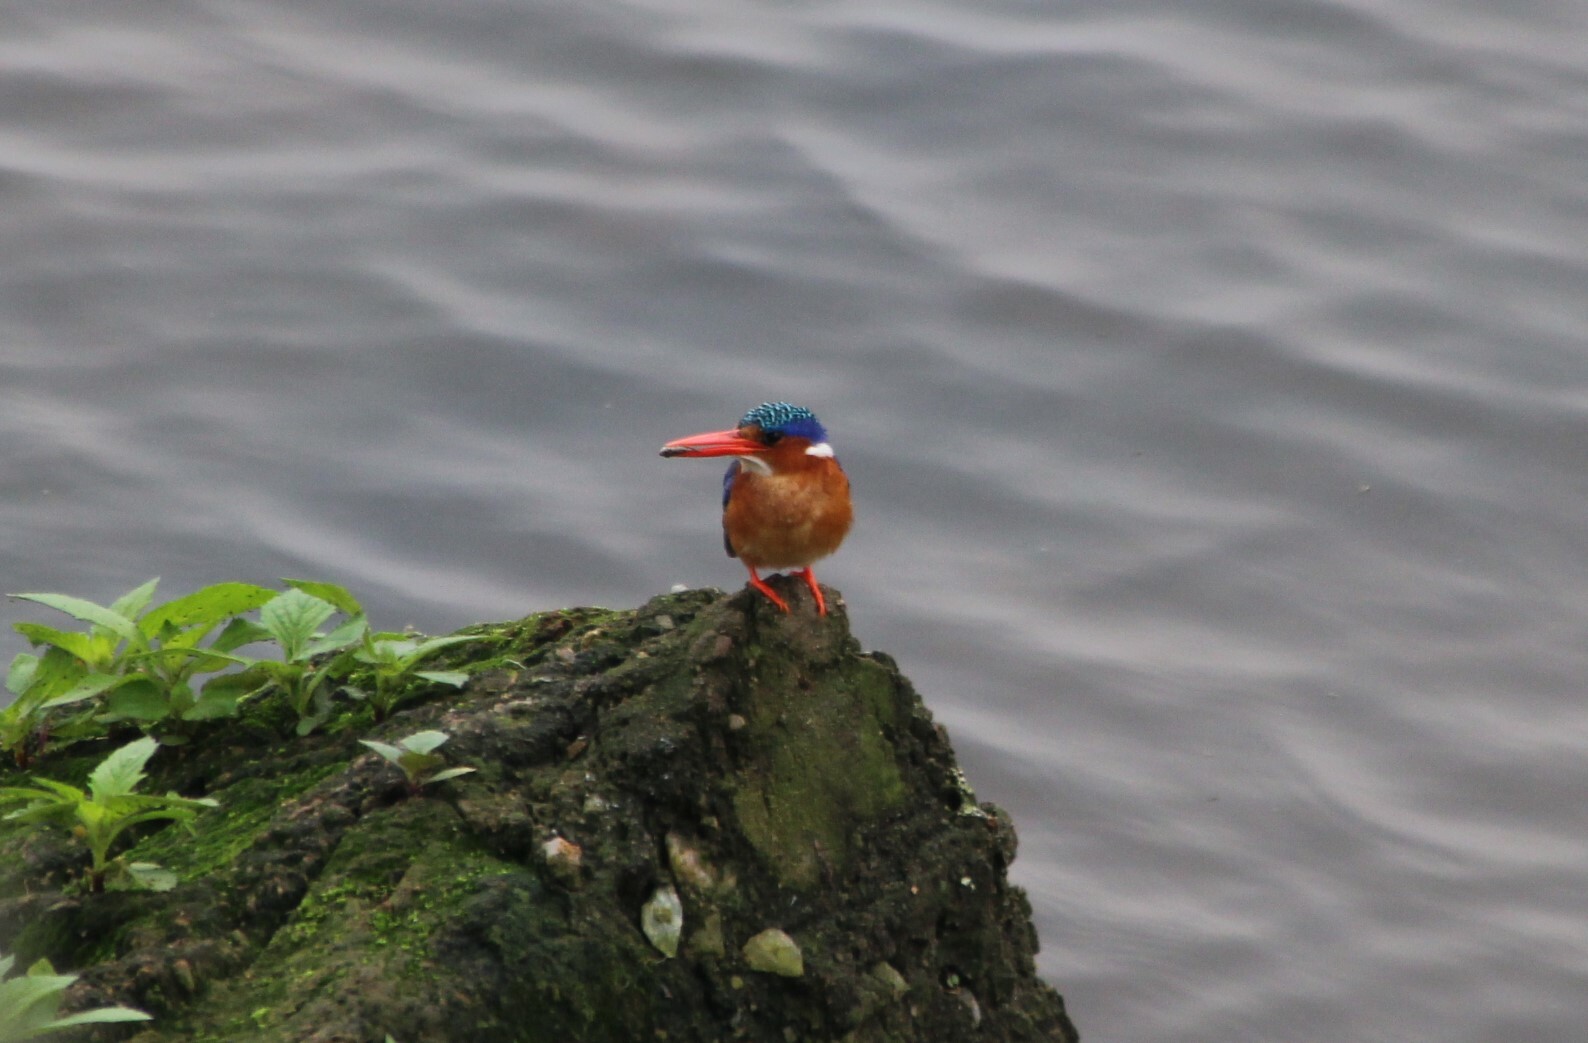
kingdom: Animalia
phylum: Chordata
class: Aves
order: Coraciiformes
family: Alcedinidae
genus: Corythornis
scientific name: Corythornis cristatus
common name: Malachite kingfisher
